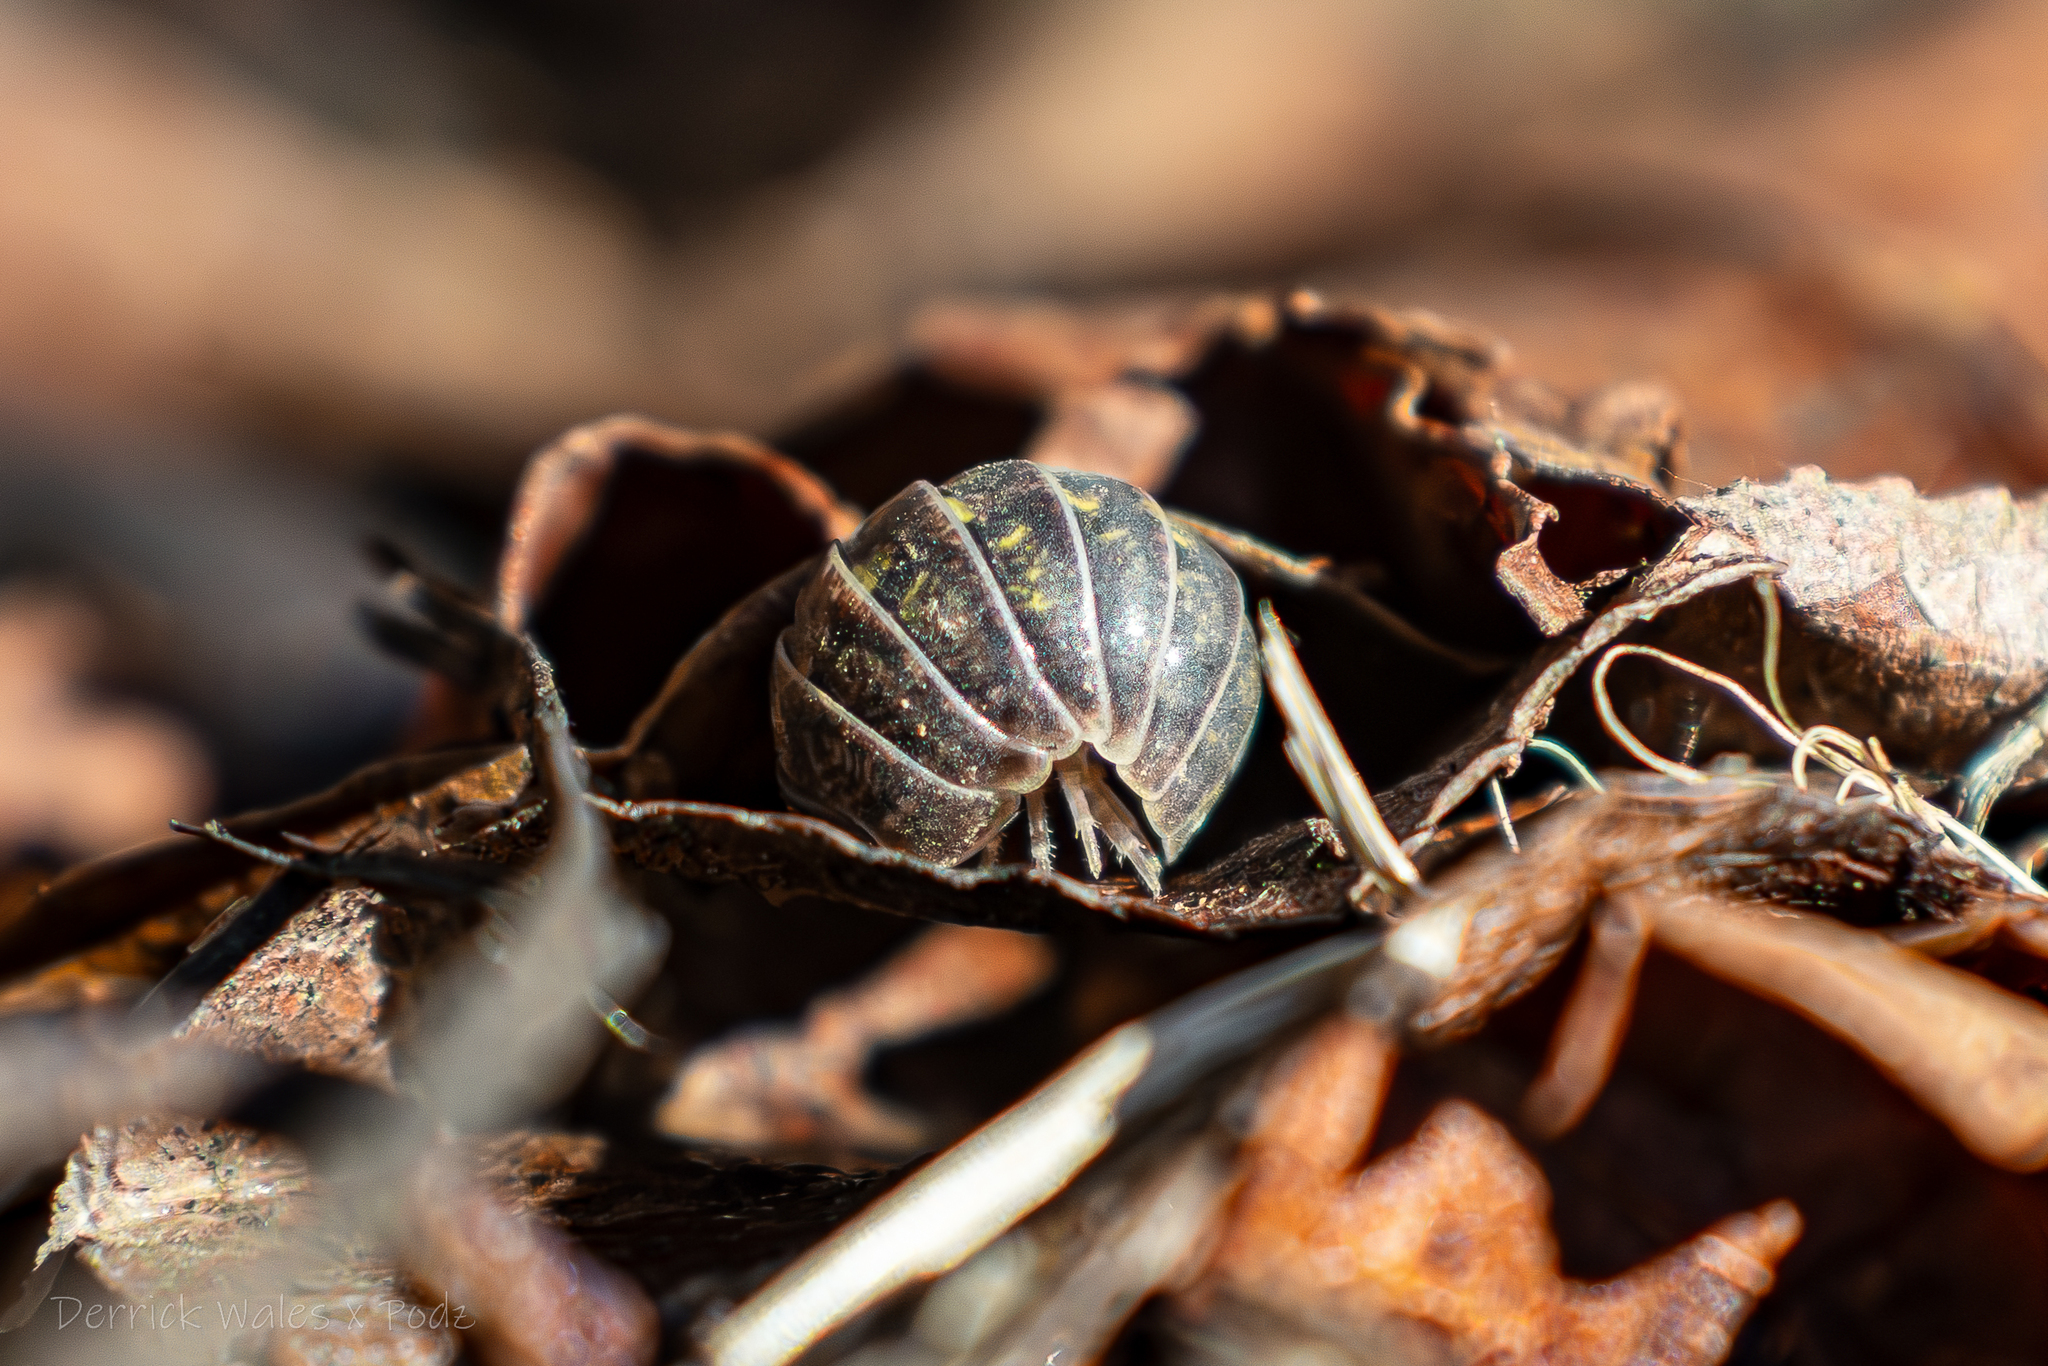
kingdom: Animalia
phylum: Arthropoda
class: Malacostraca
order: Isopoda
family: Armadillidiidae
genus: Armadillidium
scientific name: Armadillidium vulgare
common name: Common pill woodlouse
